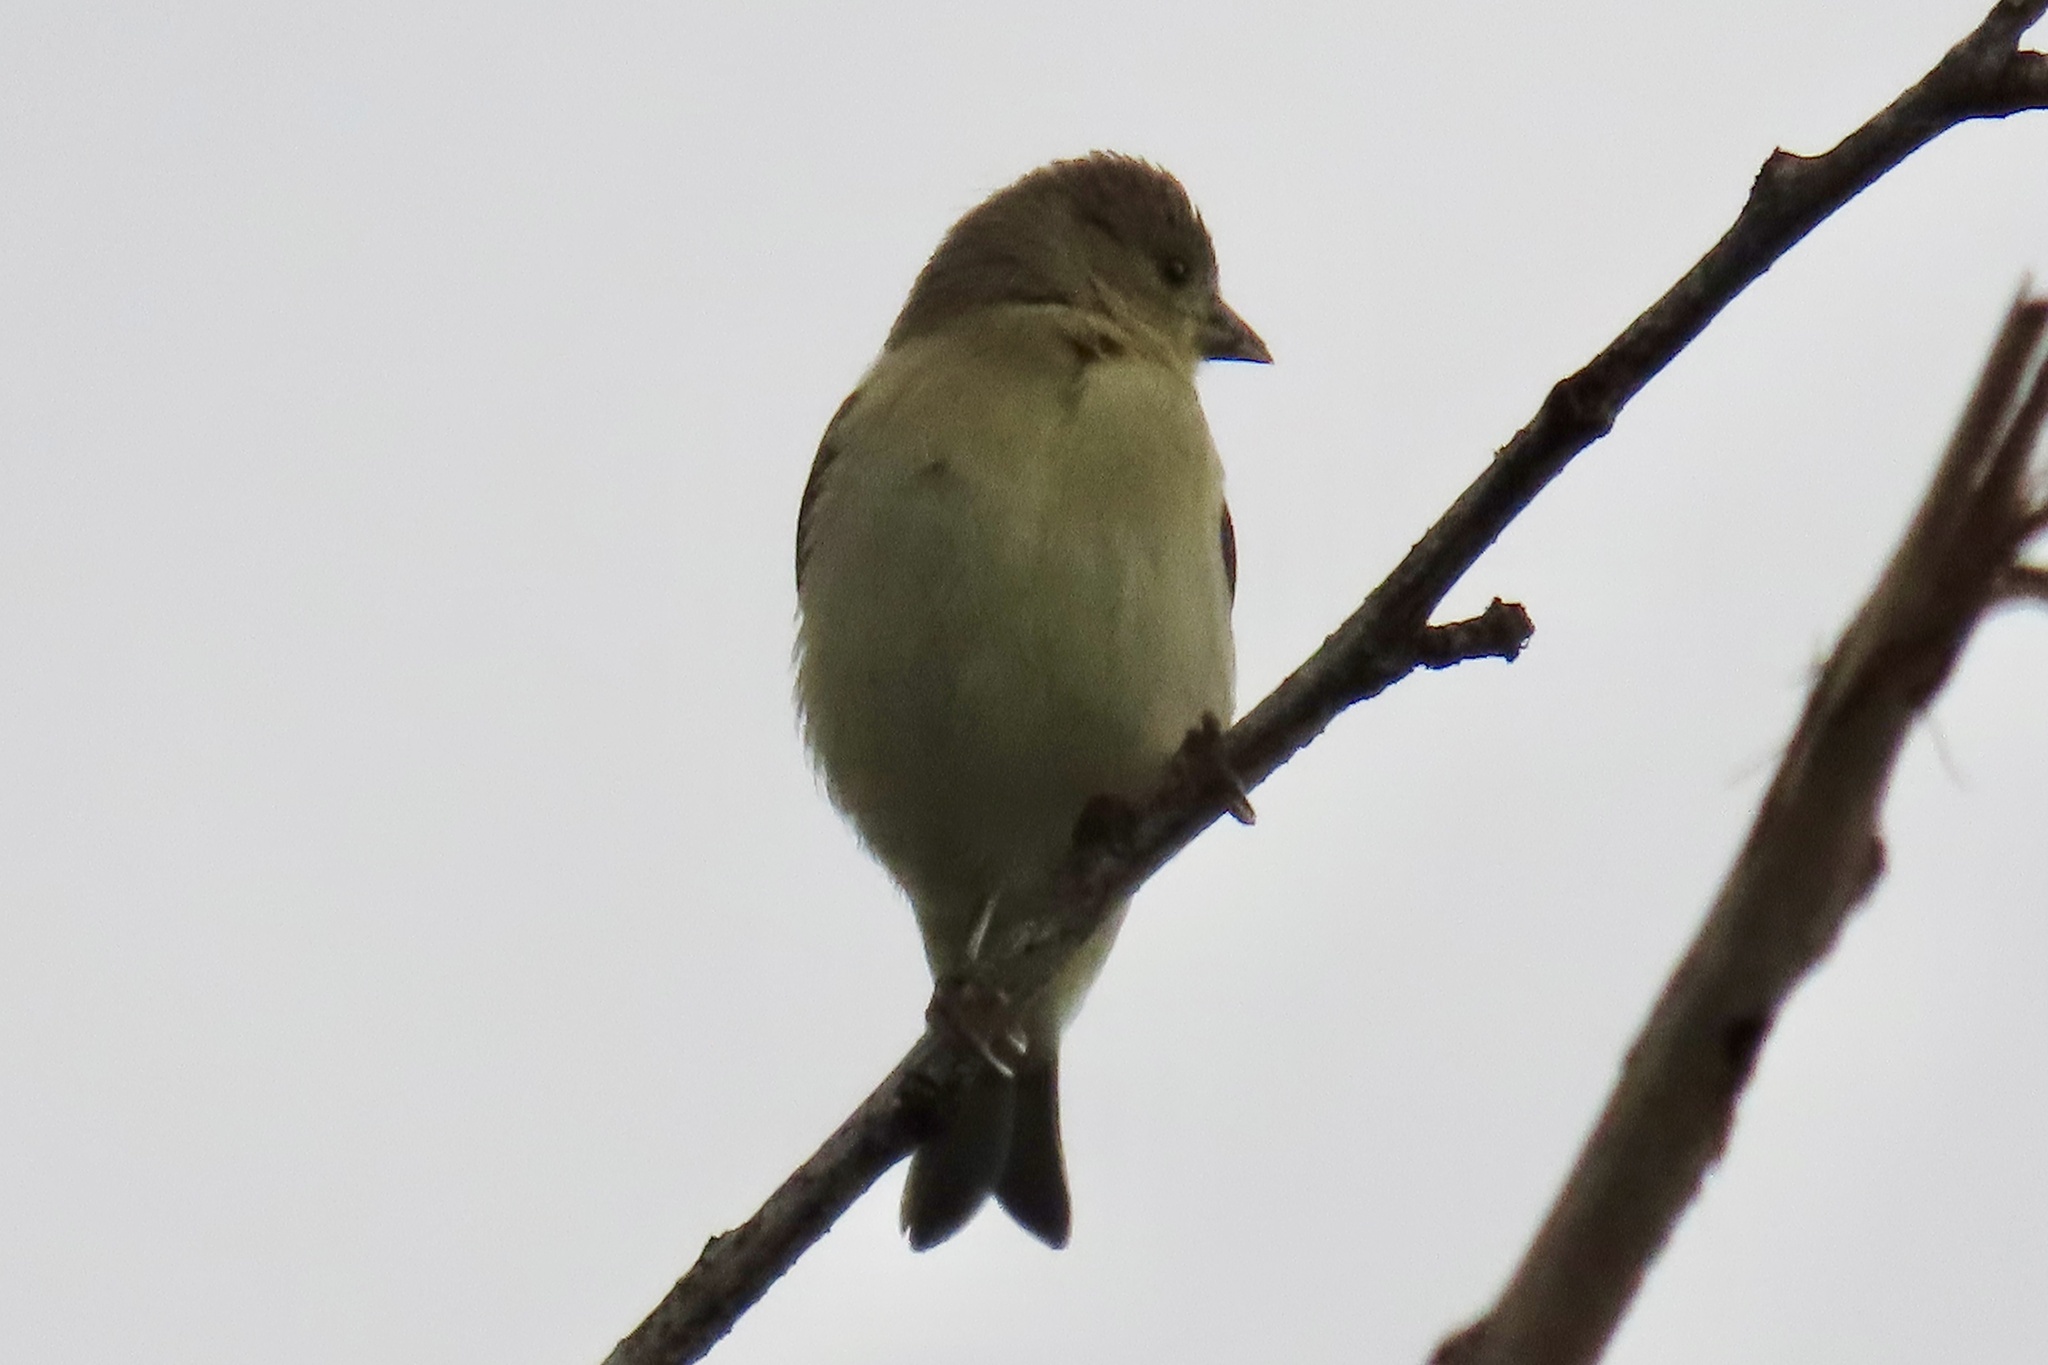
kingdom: Animalia
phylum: Chordata
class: Aves
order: Passeriformes
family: Fringillidae
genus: Spinus
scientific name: Spinus psaltria
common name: Lesser goldfinch
